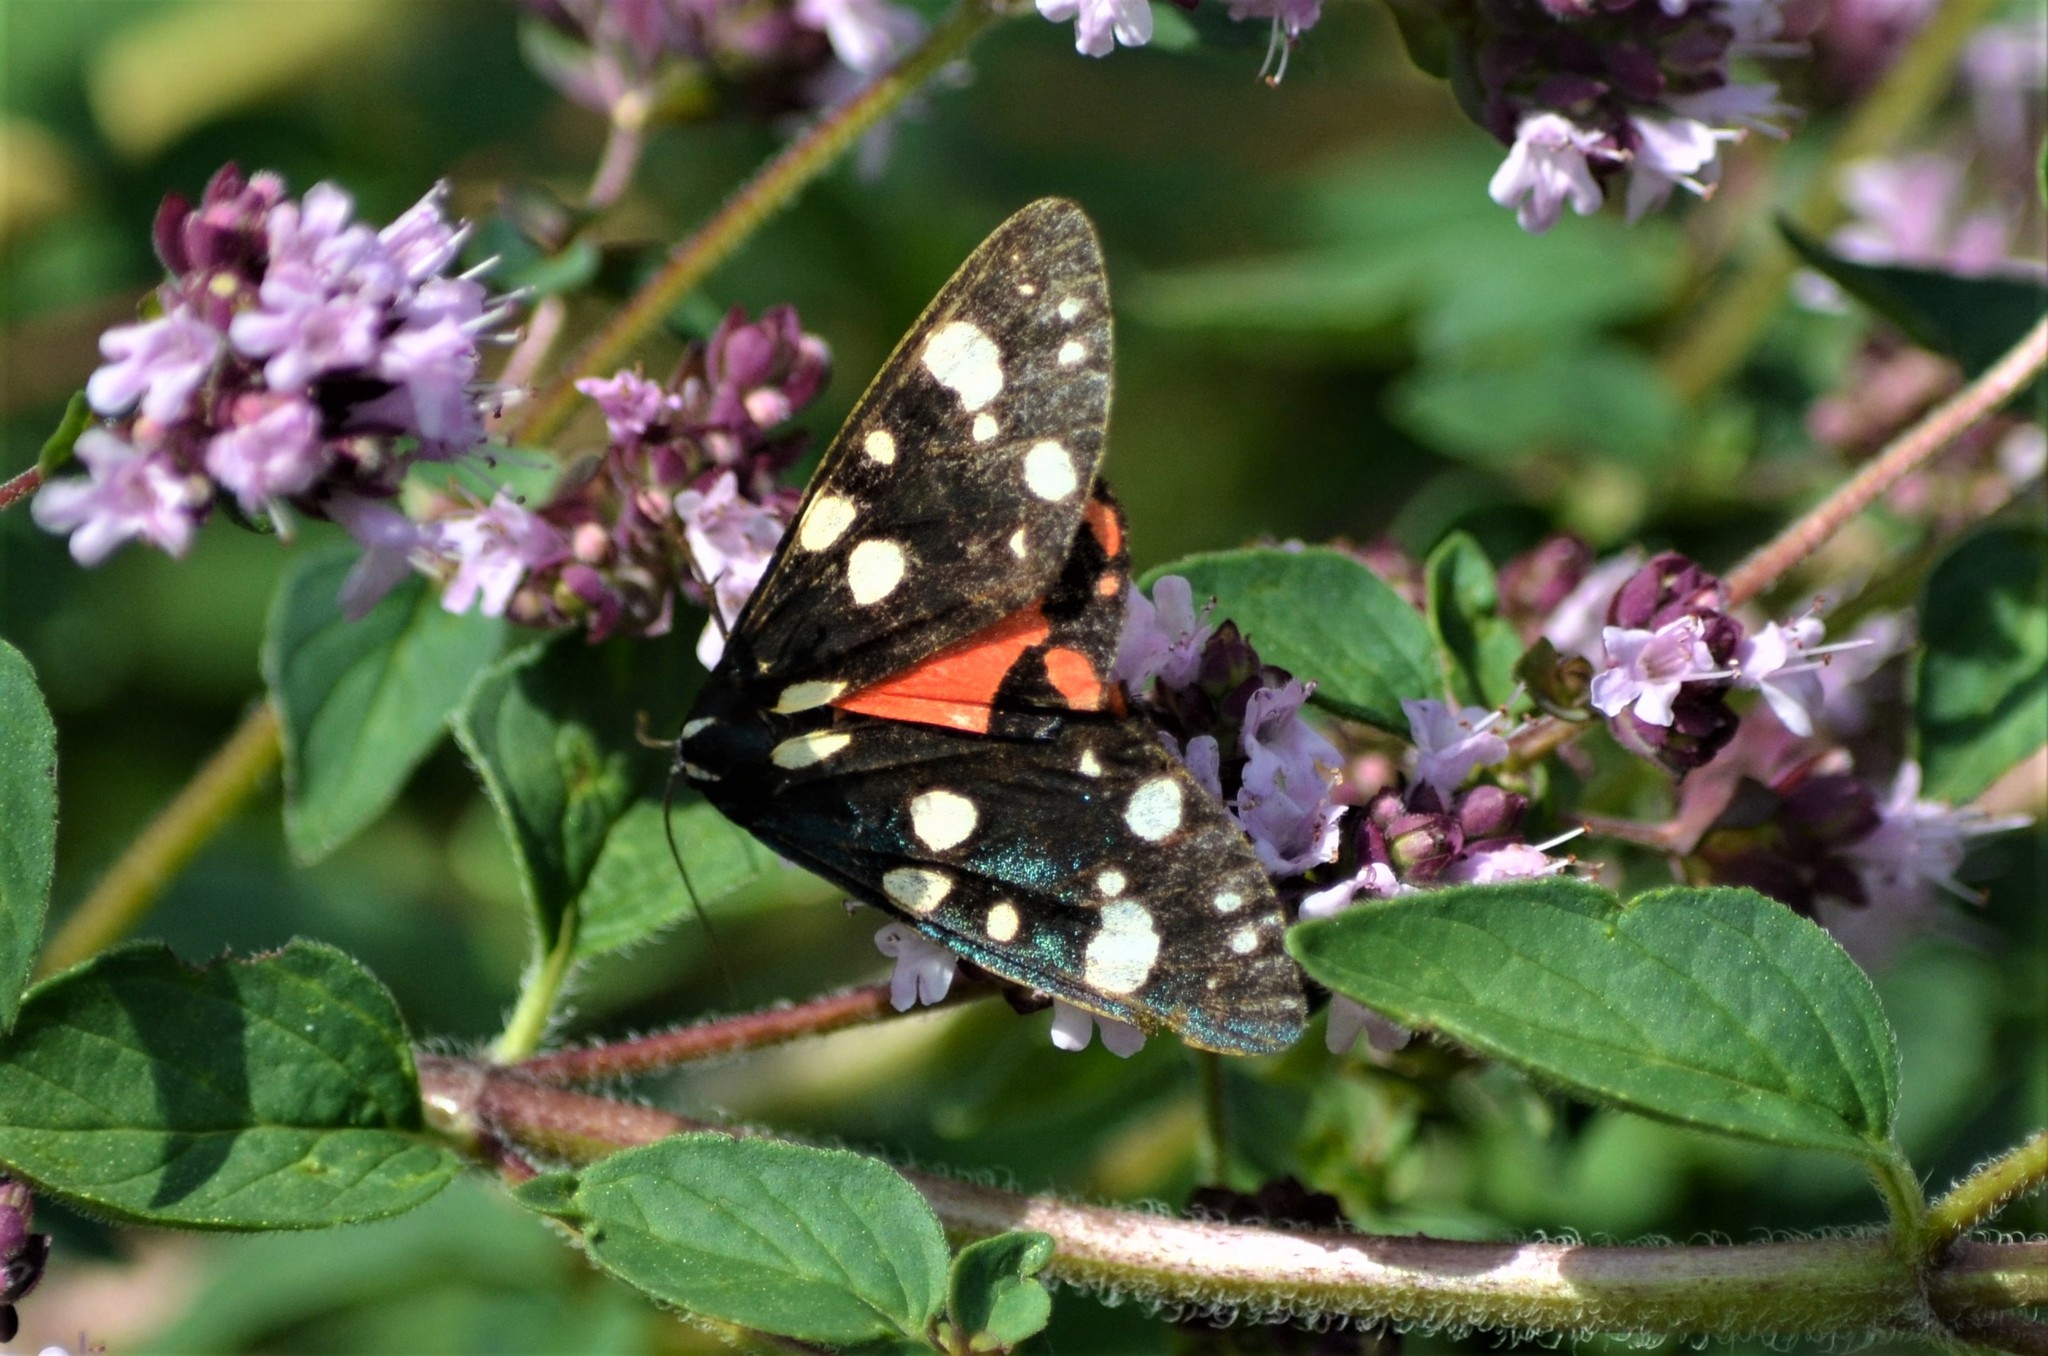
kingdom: Animalia
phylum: Arthropoda
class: Insecta
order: Lepidoptera
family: Erebidae
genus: Callimorpha
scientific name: Callimorpha dominula
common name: Scarlet tiger
